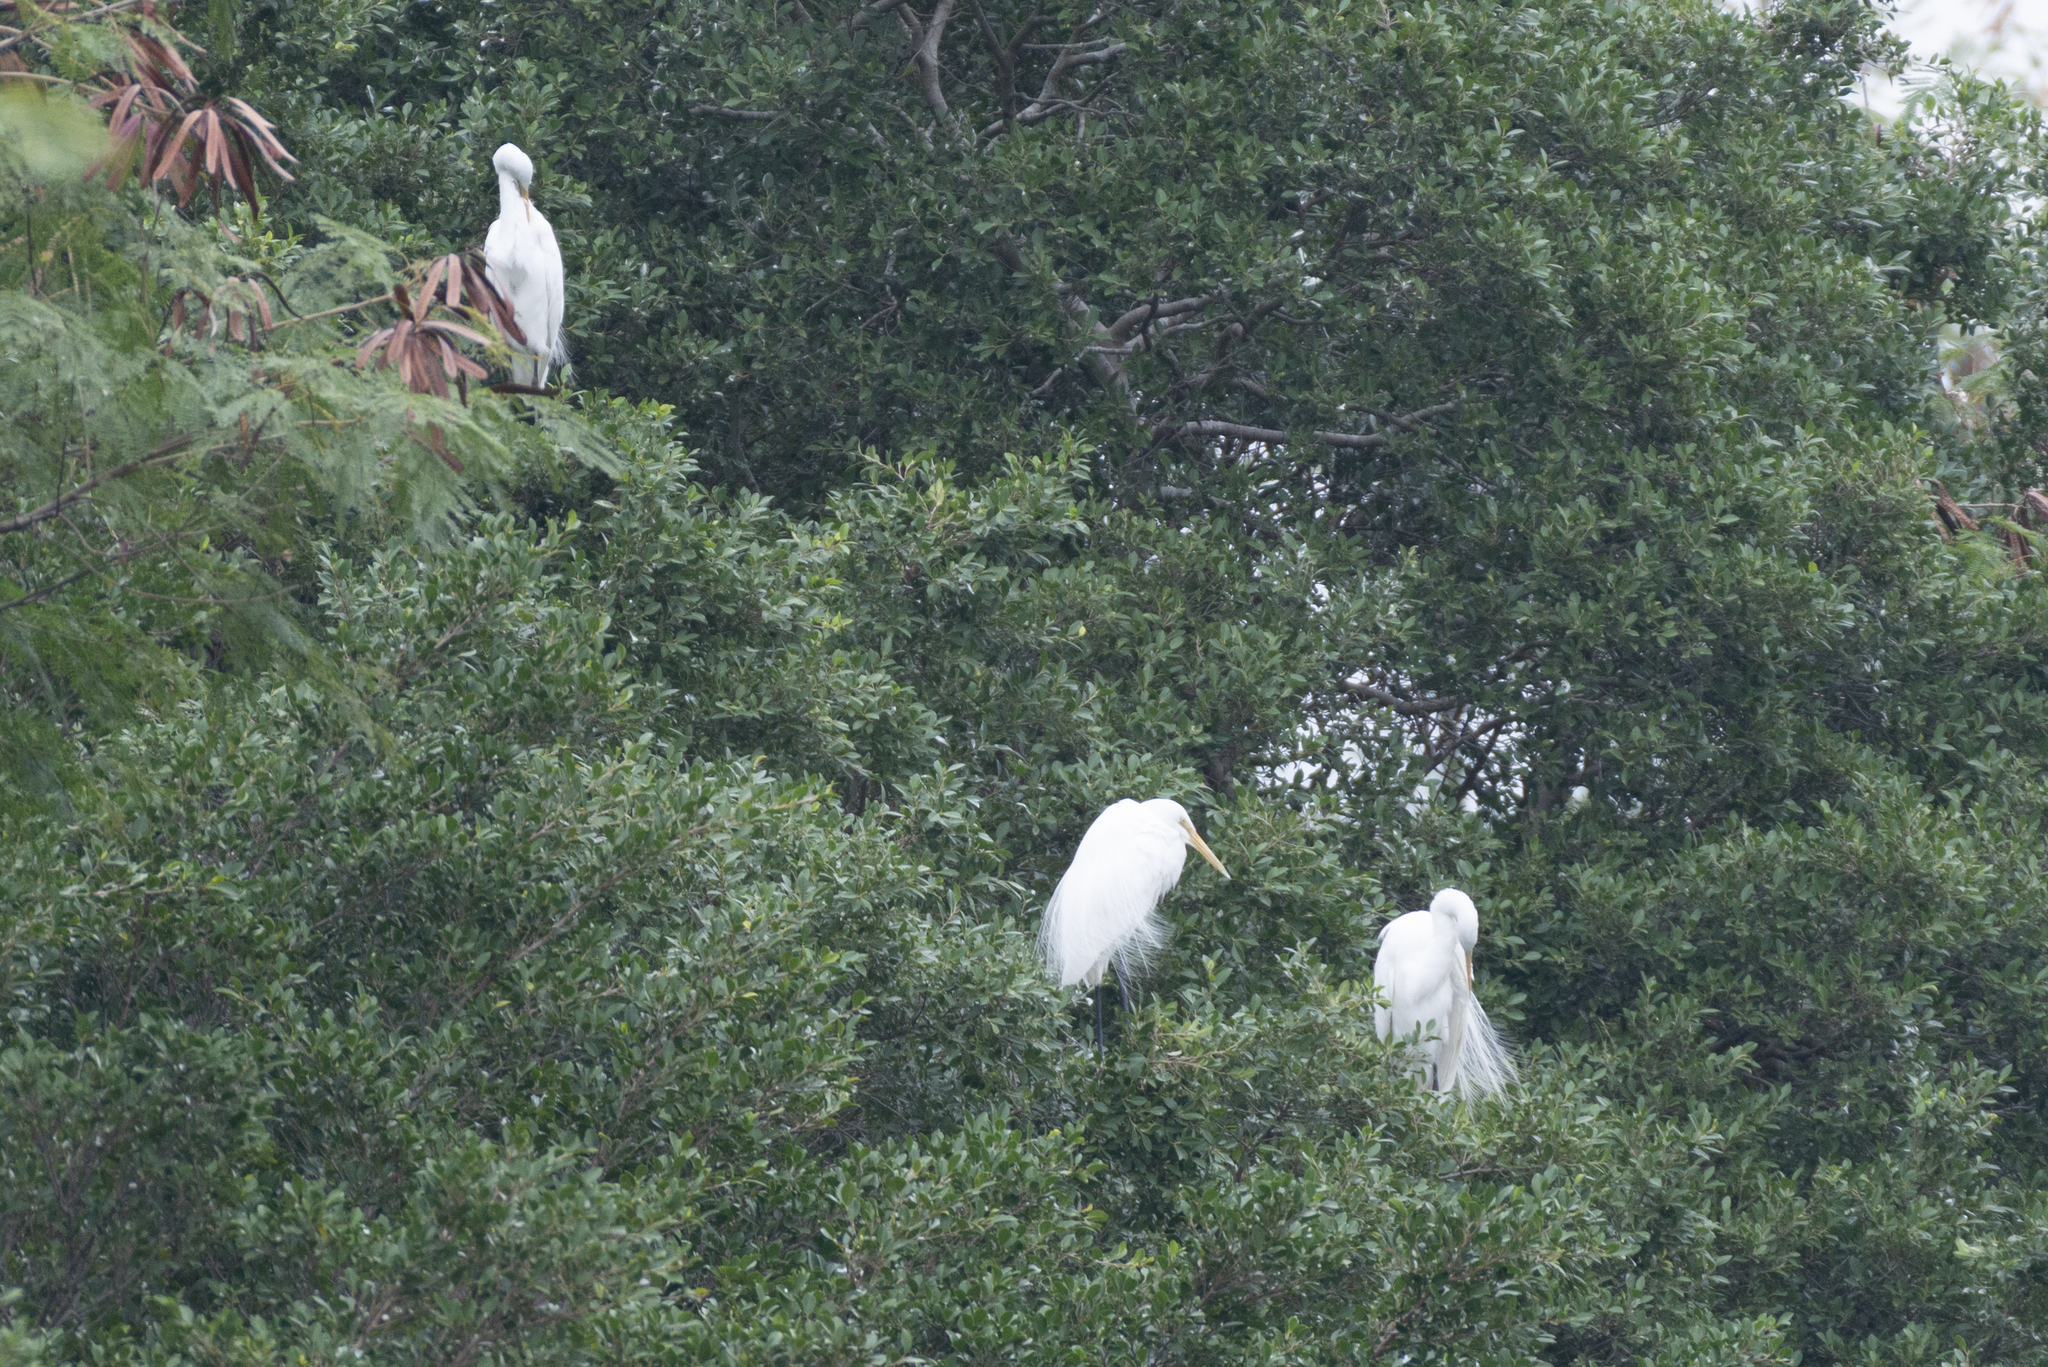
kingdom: Animalia
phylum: Chordata
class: Aves
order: Pelecaniformes
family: Ardeidae
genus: Ardea
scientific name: Ardea alba
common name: Great egret
